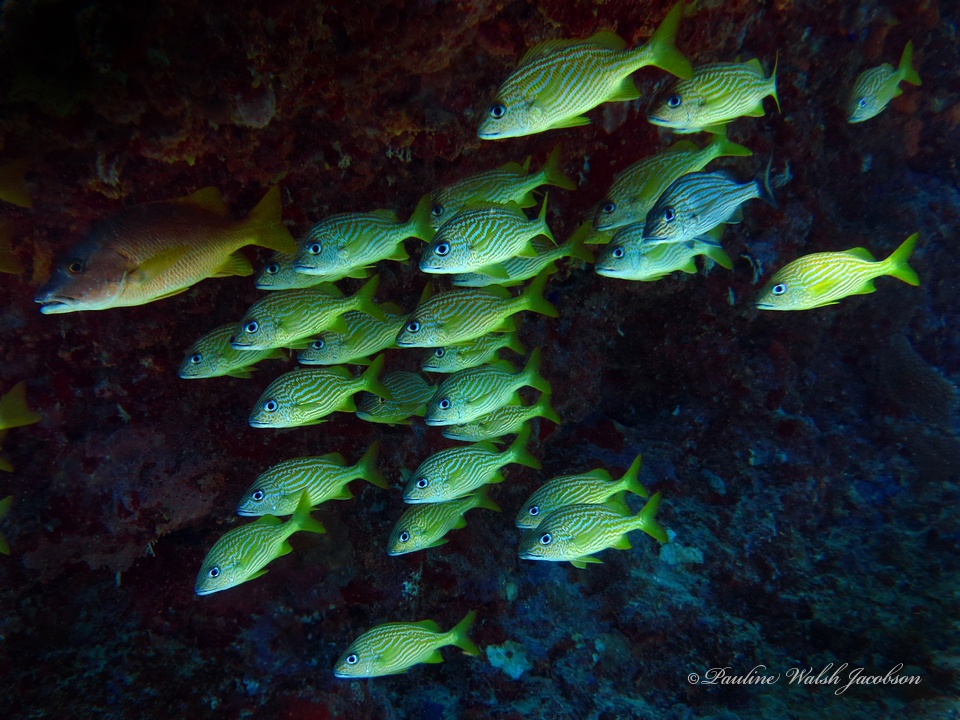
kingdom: Animalia
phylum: Chordata
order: Perciformes
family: Haemulidae
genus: Haemulon
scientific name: Haemulon flavolineatum
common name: French grunt
